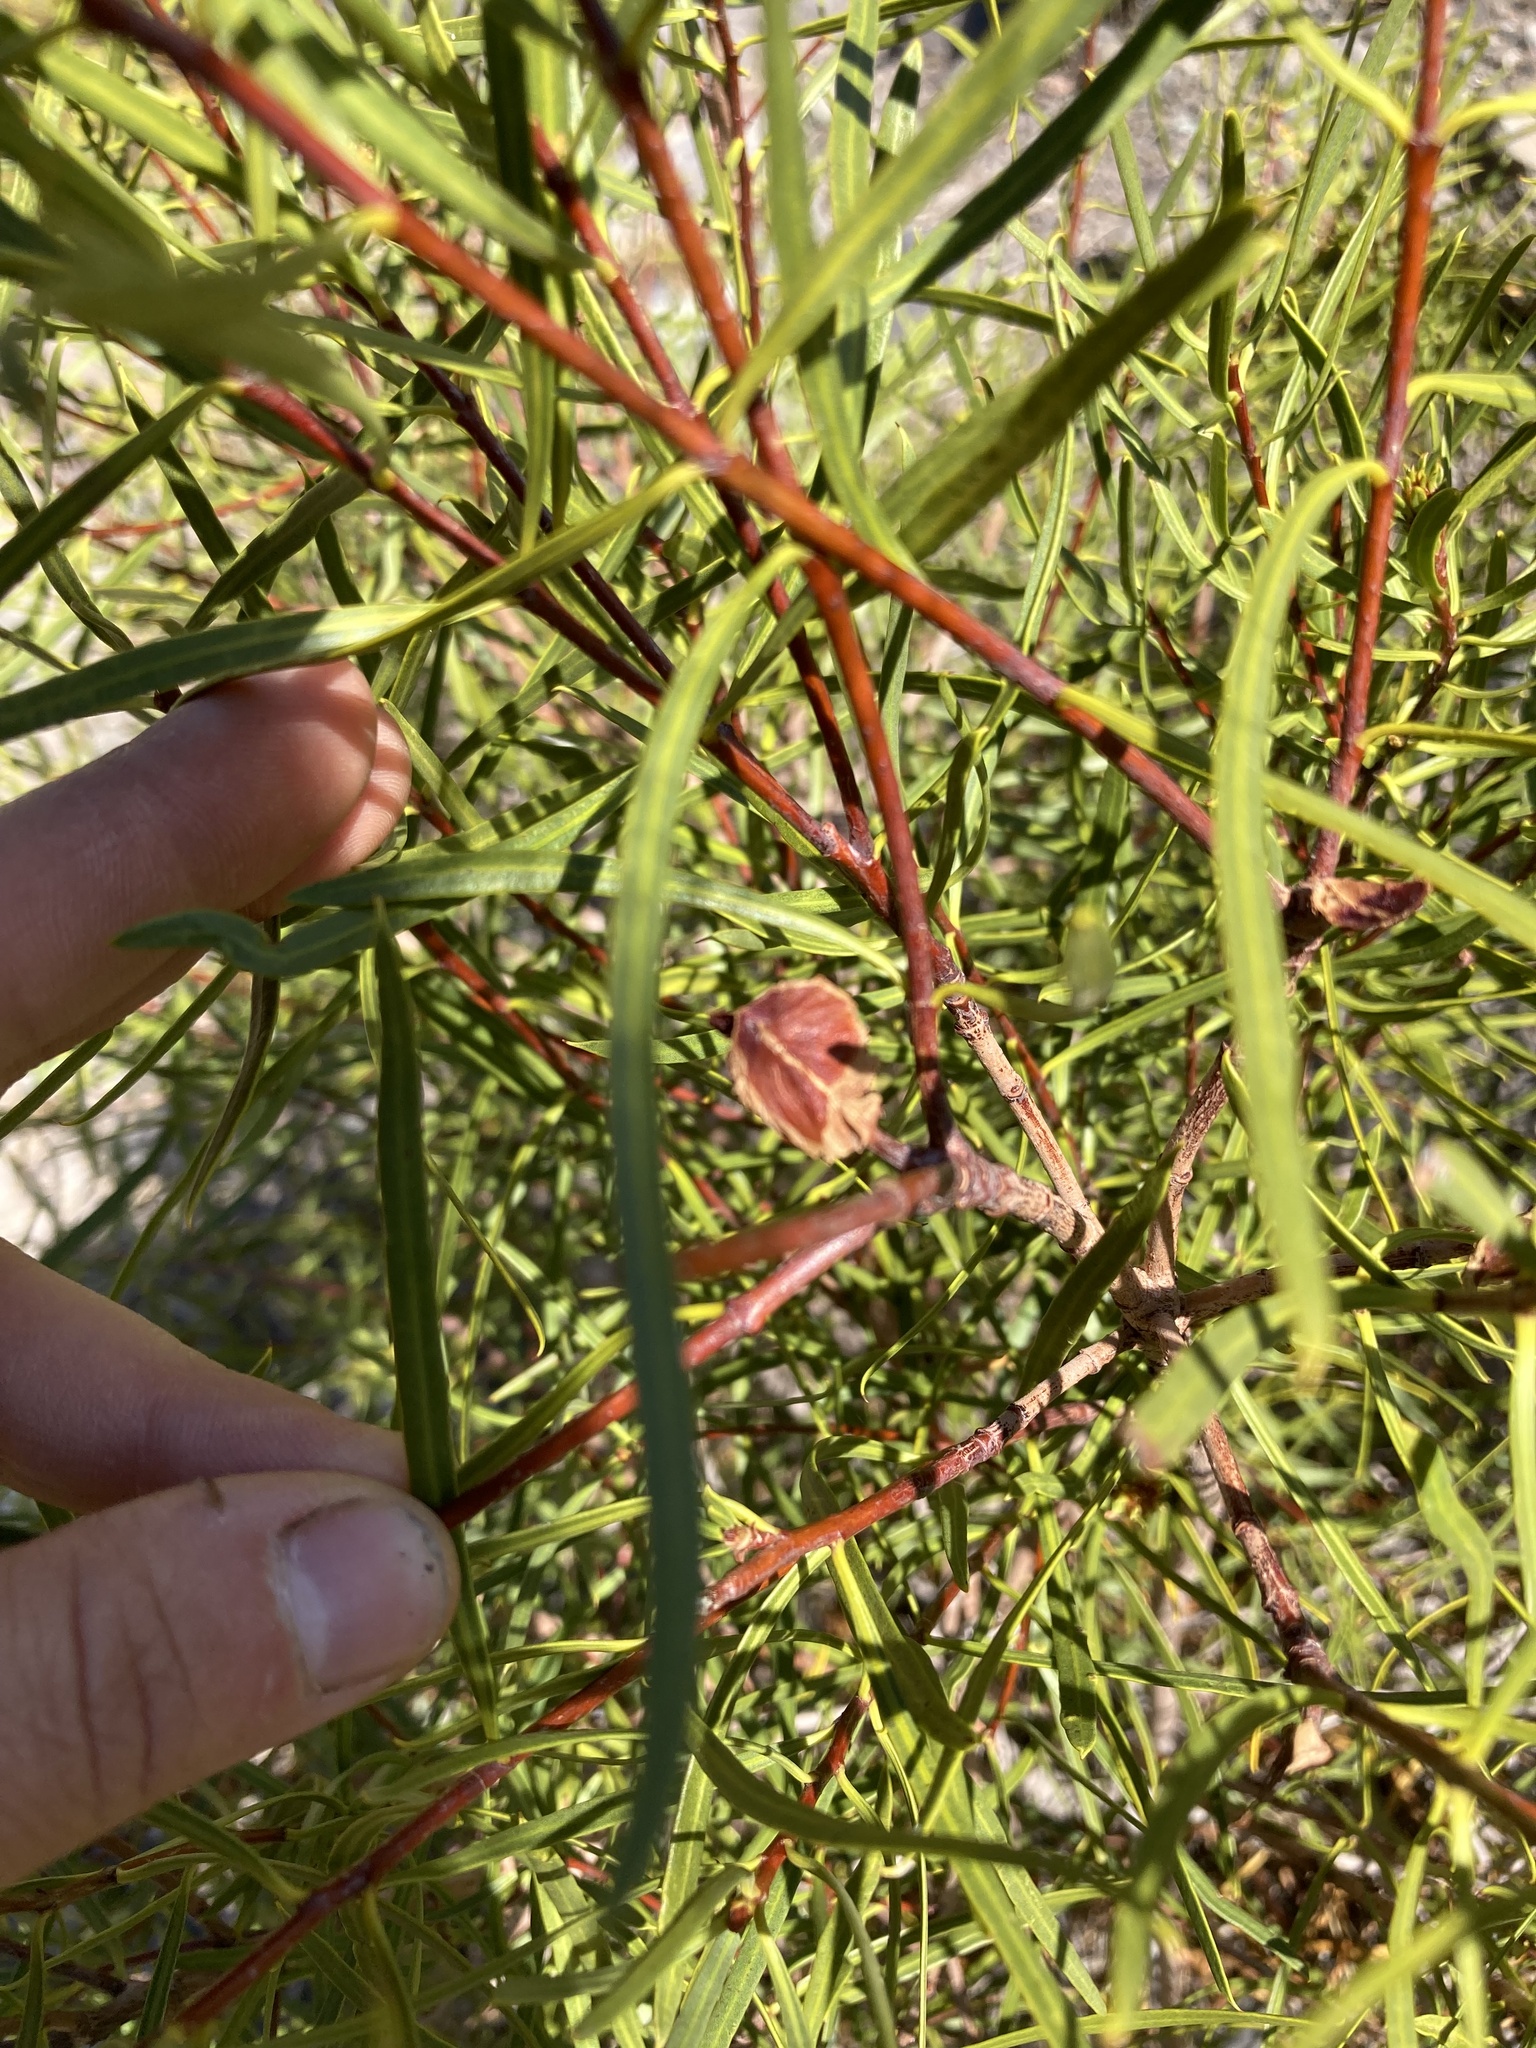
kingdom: Plantae
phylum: Tracheophyta
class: Magnoliopsida
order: Malpighiales
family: Euphorbiaceae
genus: Colliguaja
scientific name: Colliguaja integerrima
